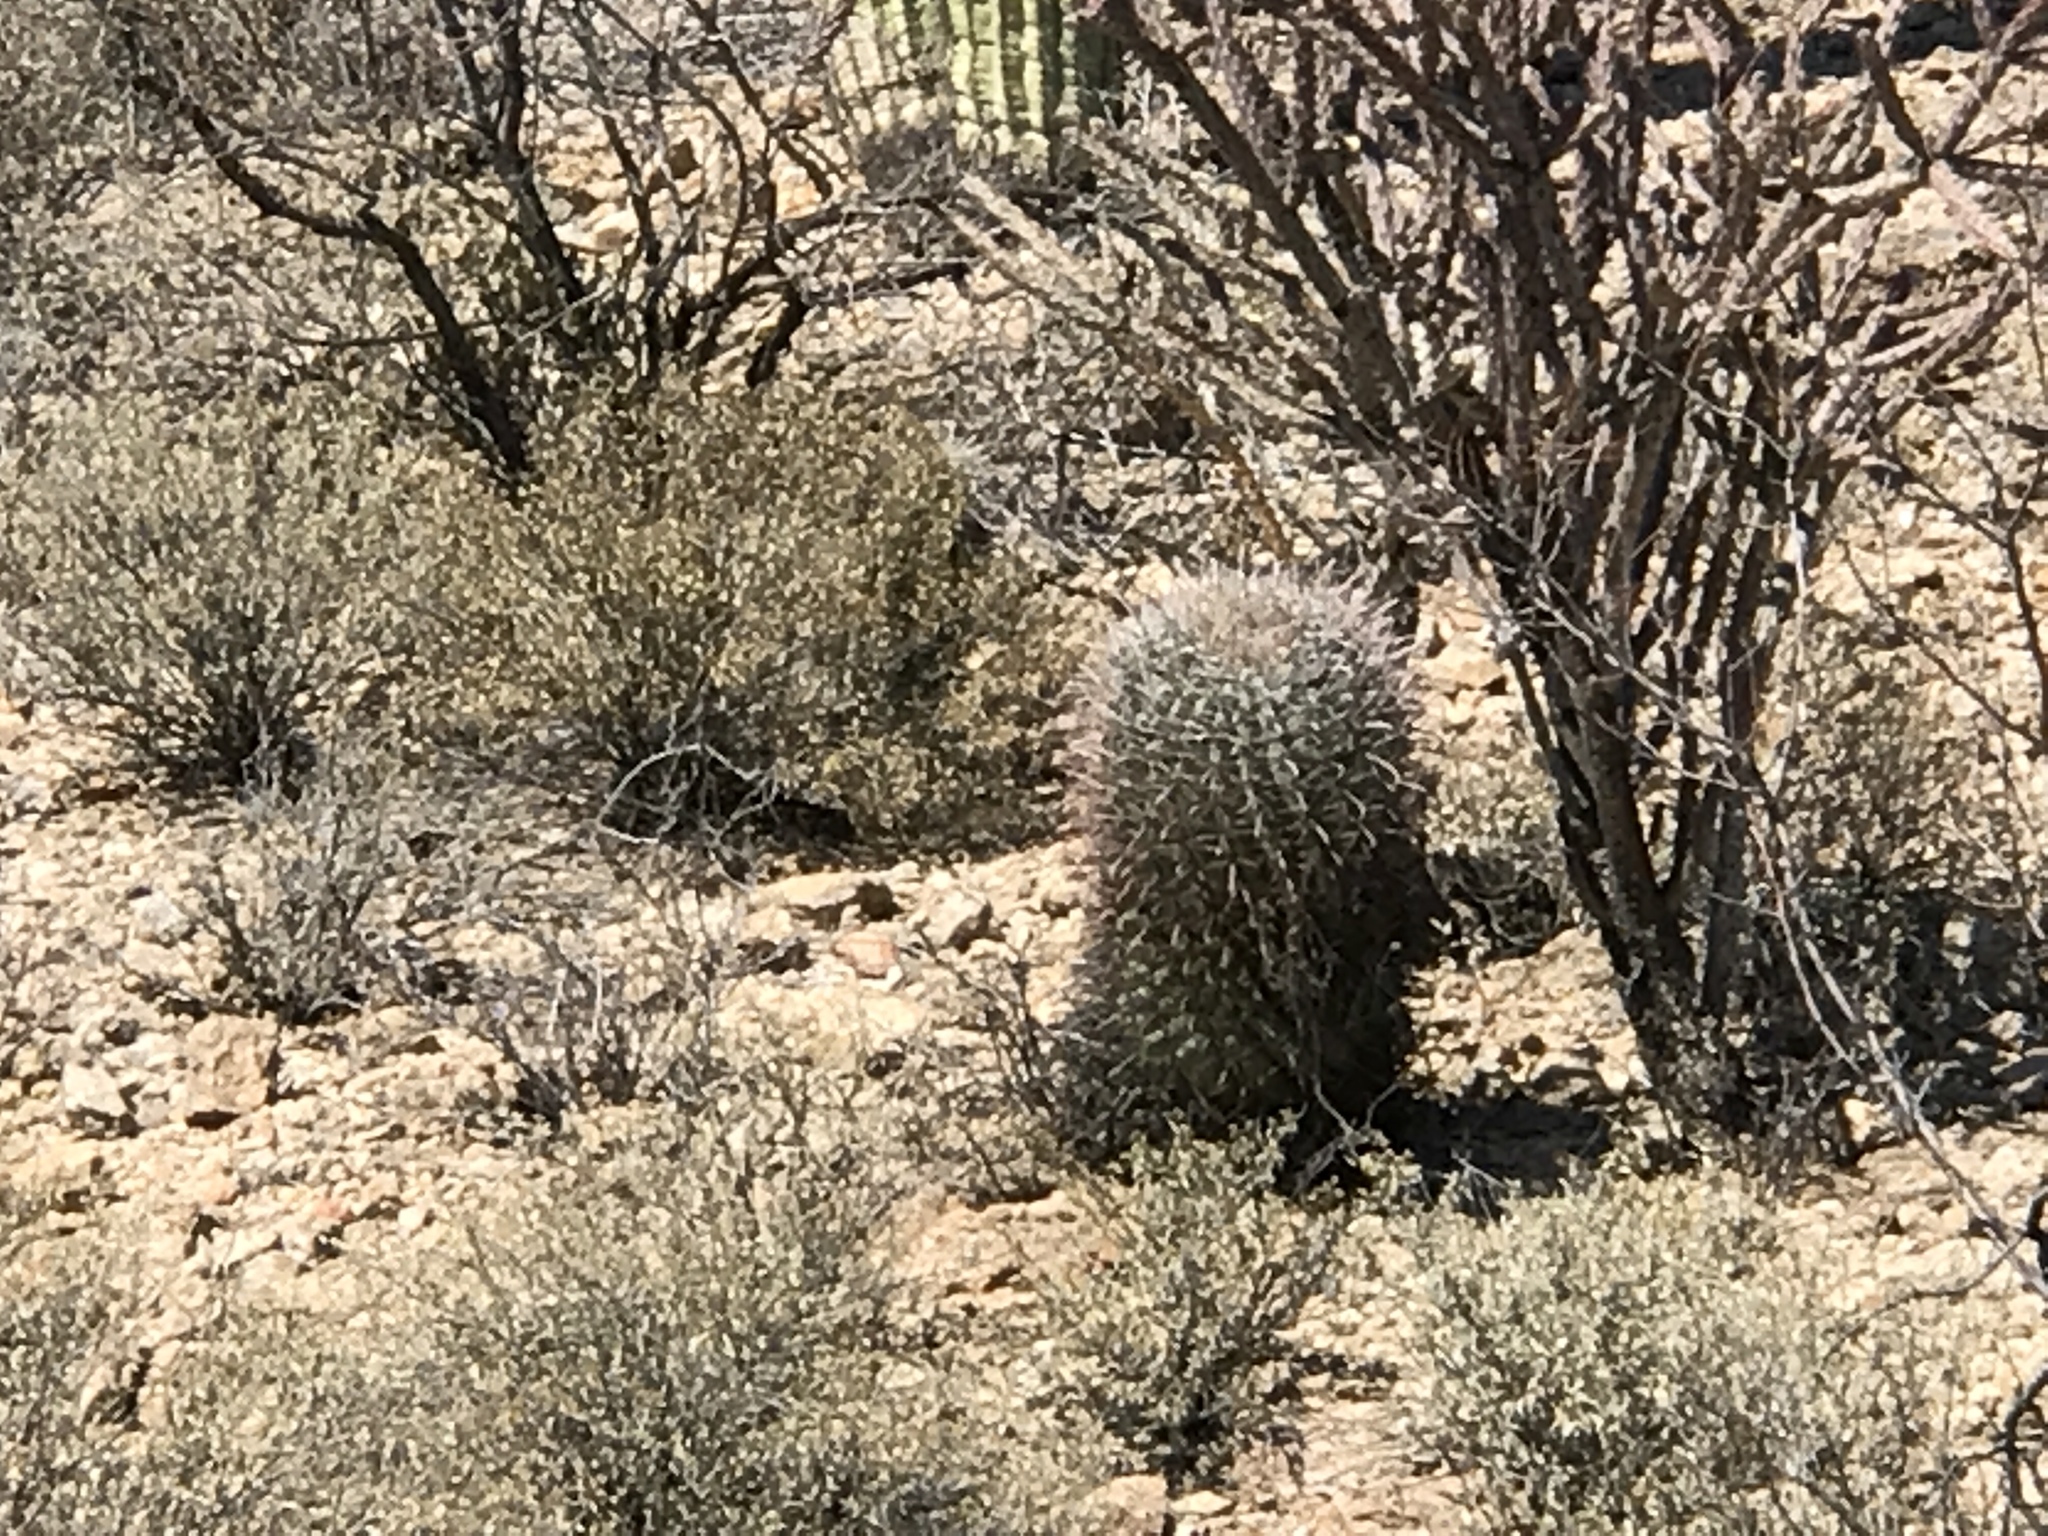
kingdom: Plantae
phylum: Tracheophyta
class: Magnoliopsida
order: Caryophyllales
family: Cactaceae
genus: Ferocactus
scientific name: Ferocactus wislizeni
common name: Candy barrel cactus
